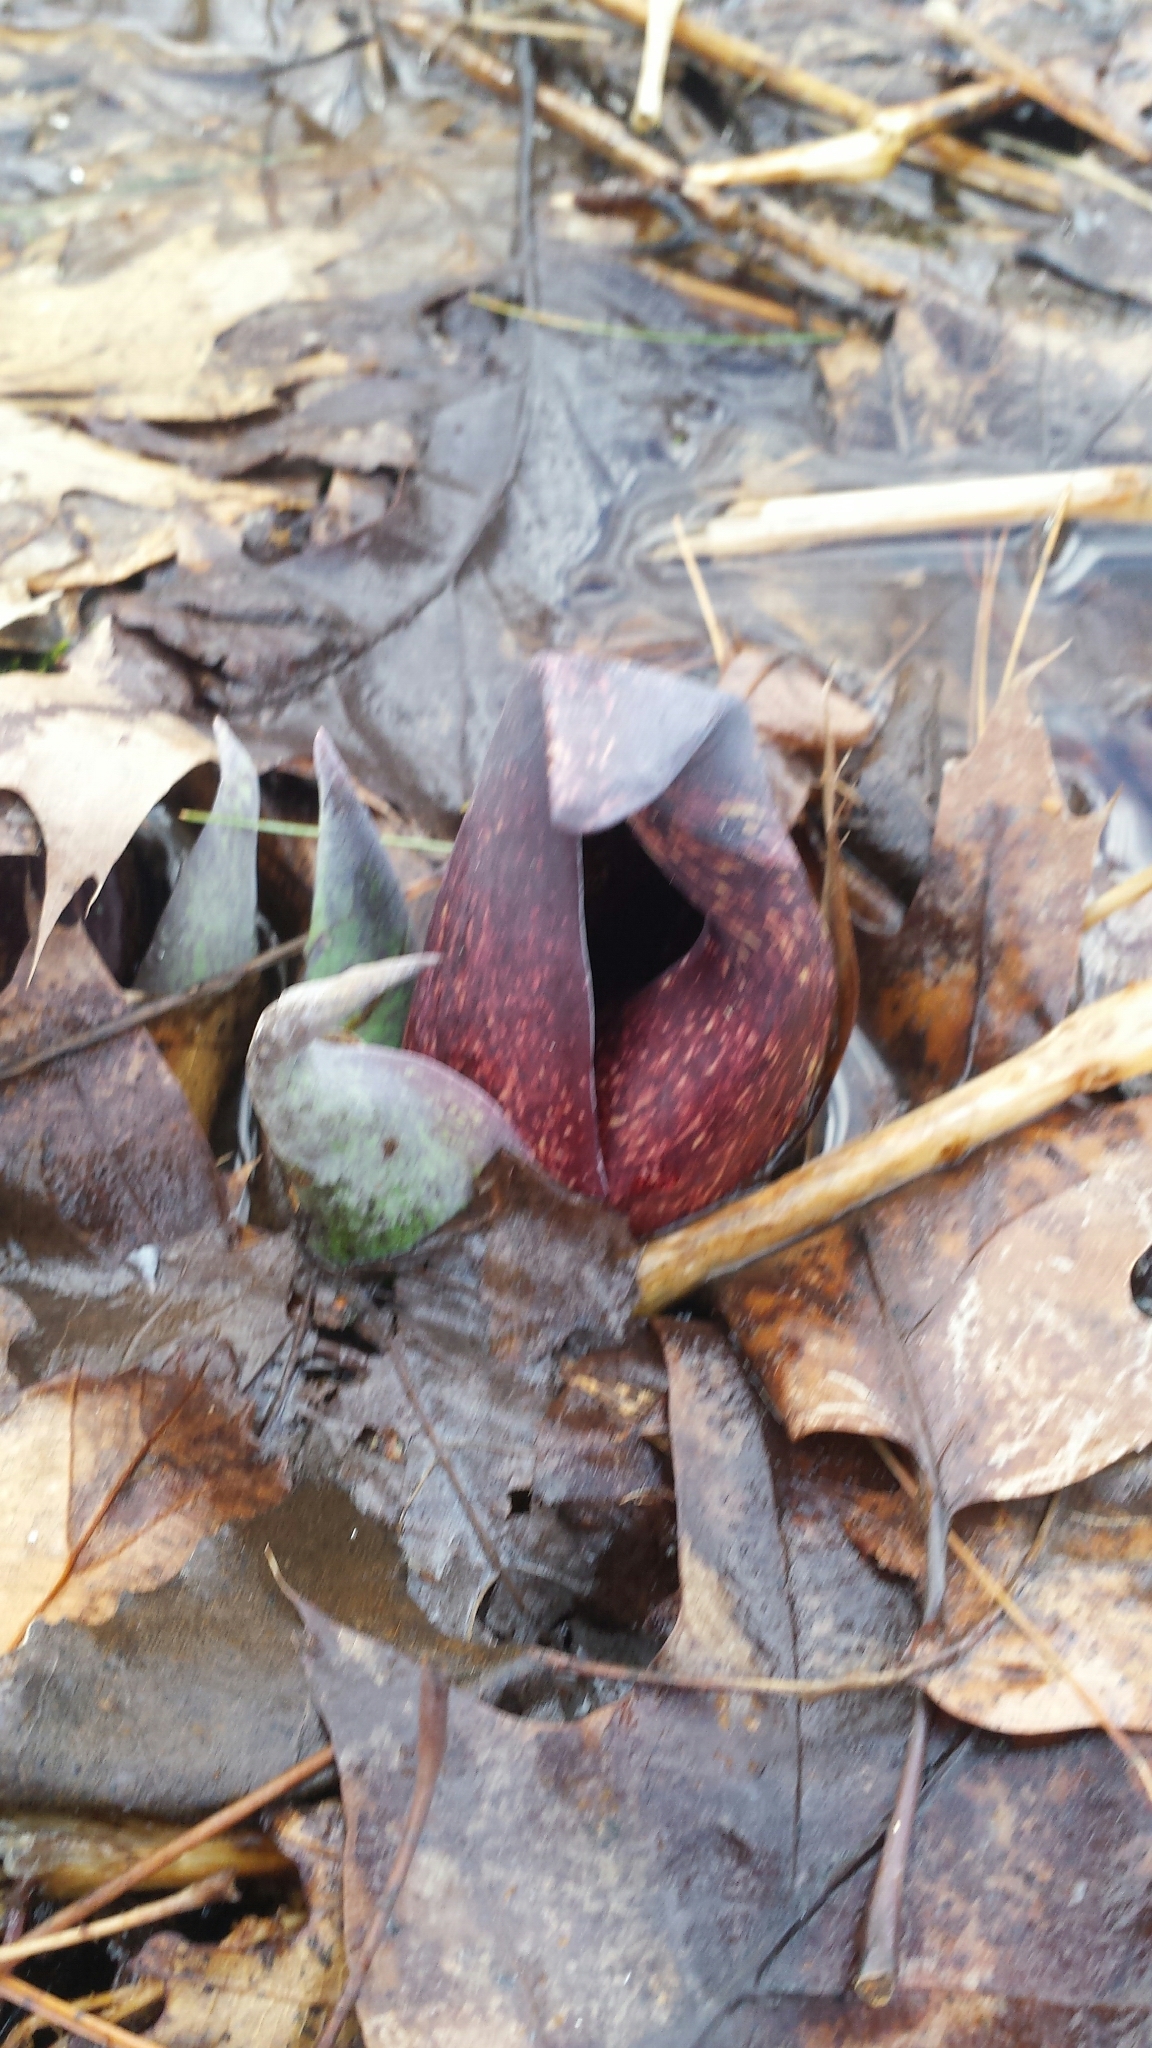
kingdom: Plantae
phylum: Tracheophyta
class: Liliopsida
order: Alismatales
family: Araceae
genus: Symplocarpus
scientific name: Symplocarpus foetidus
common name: Eastern skunk cabbage
